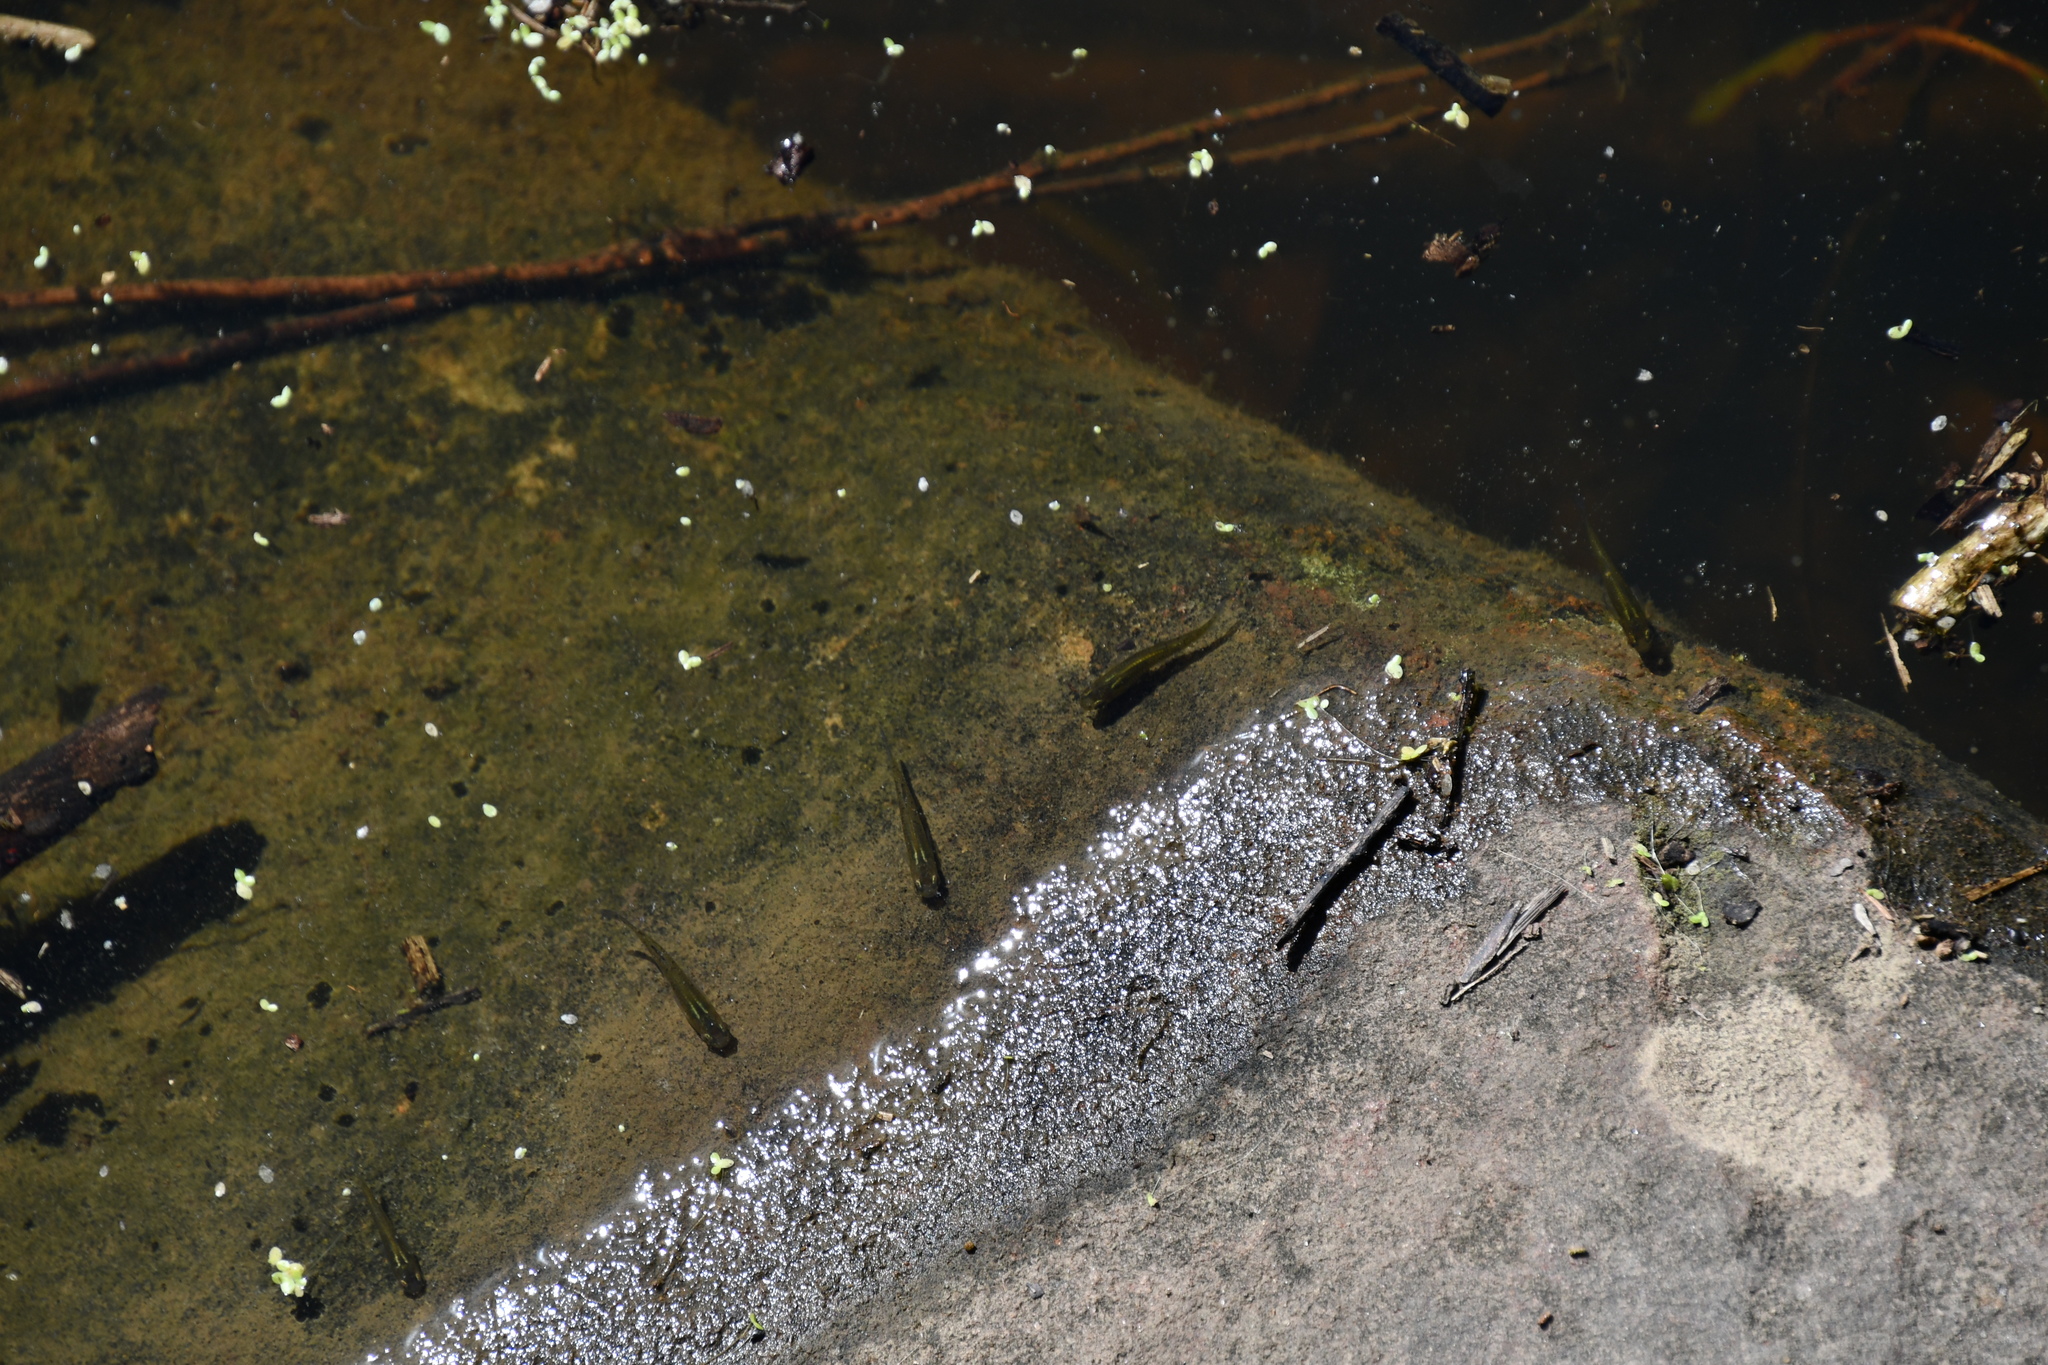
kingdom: Animalia
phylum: Chordata
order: Cyprinodontiformes
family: Poeciliidae
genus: Gambusia
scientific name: Gambusia holbrooki
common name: Eastern mosquitofish
